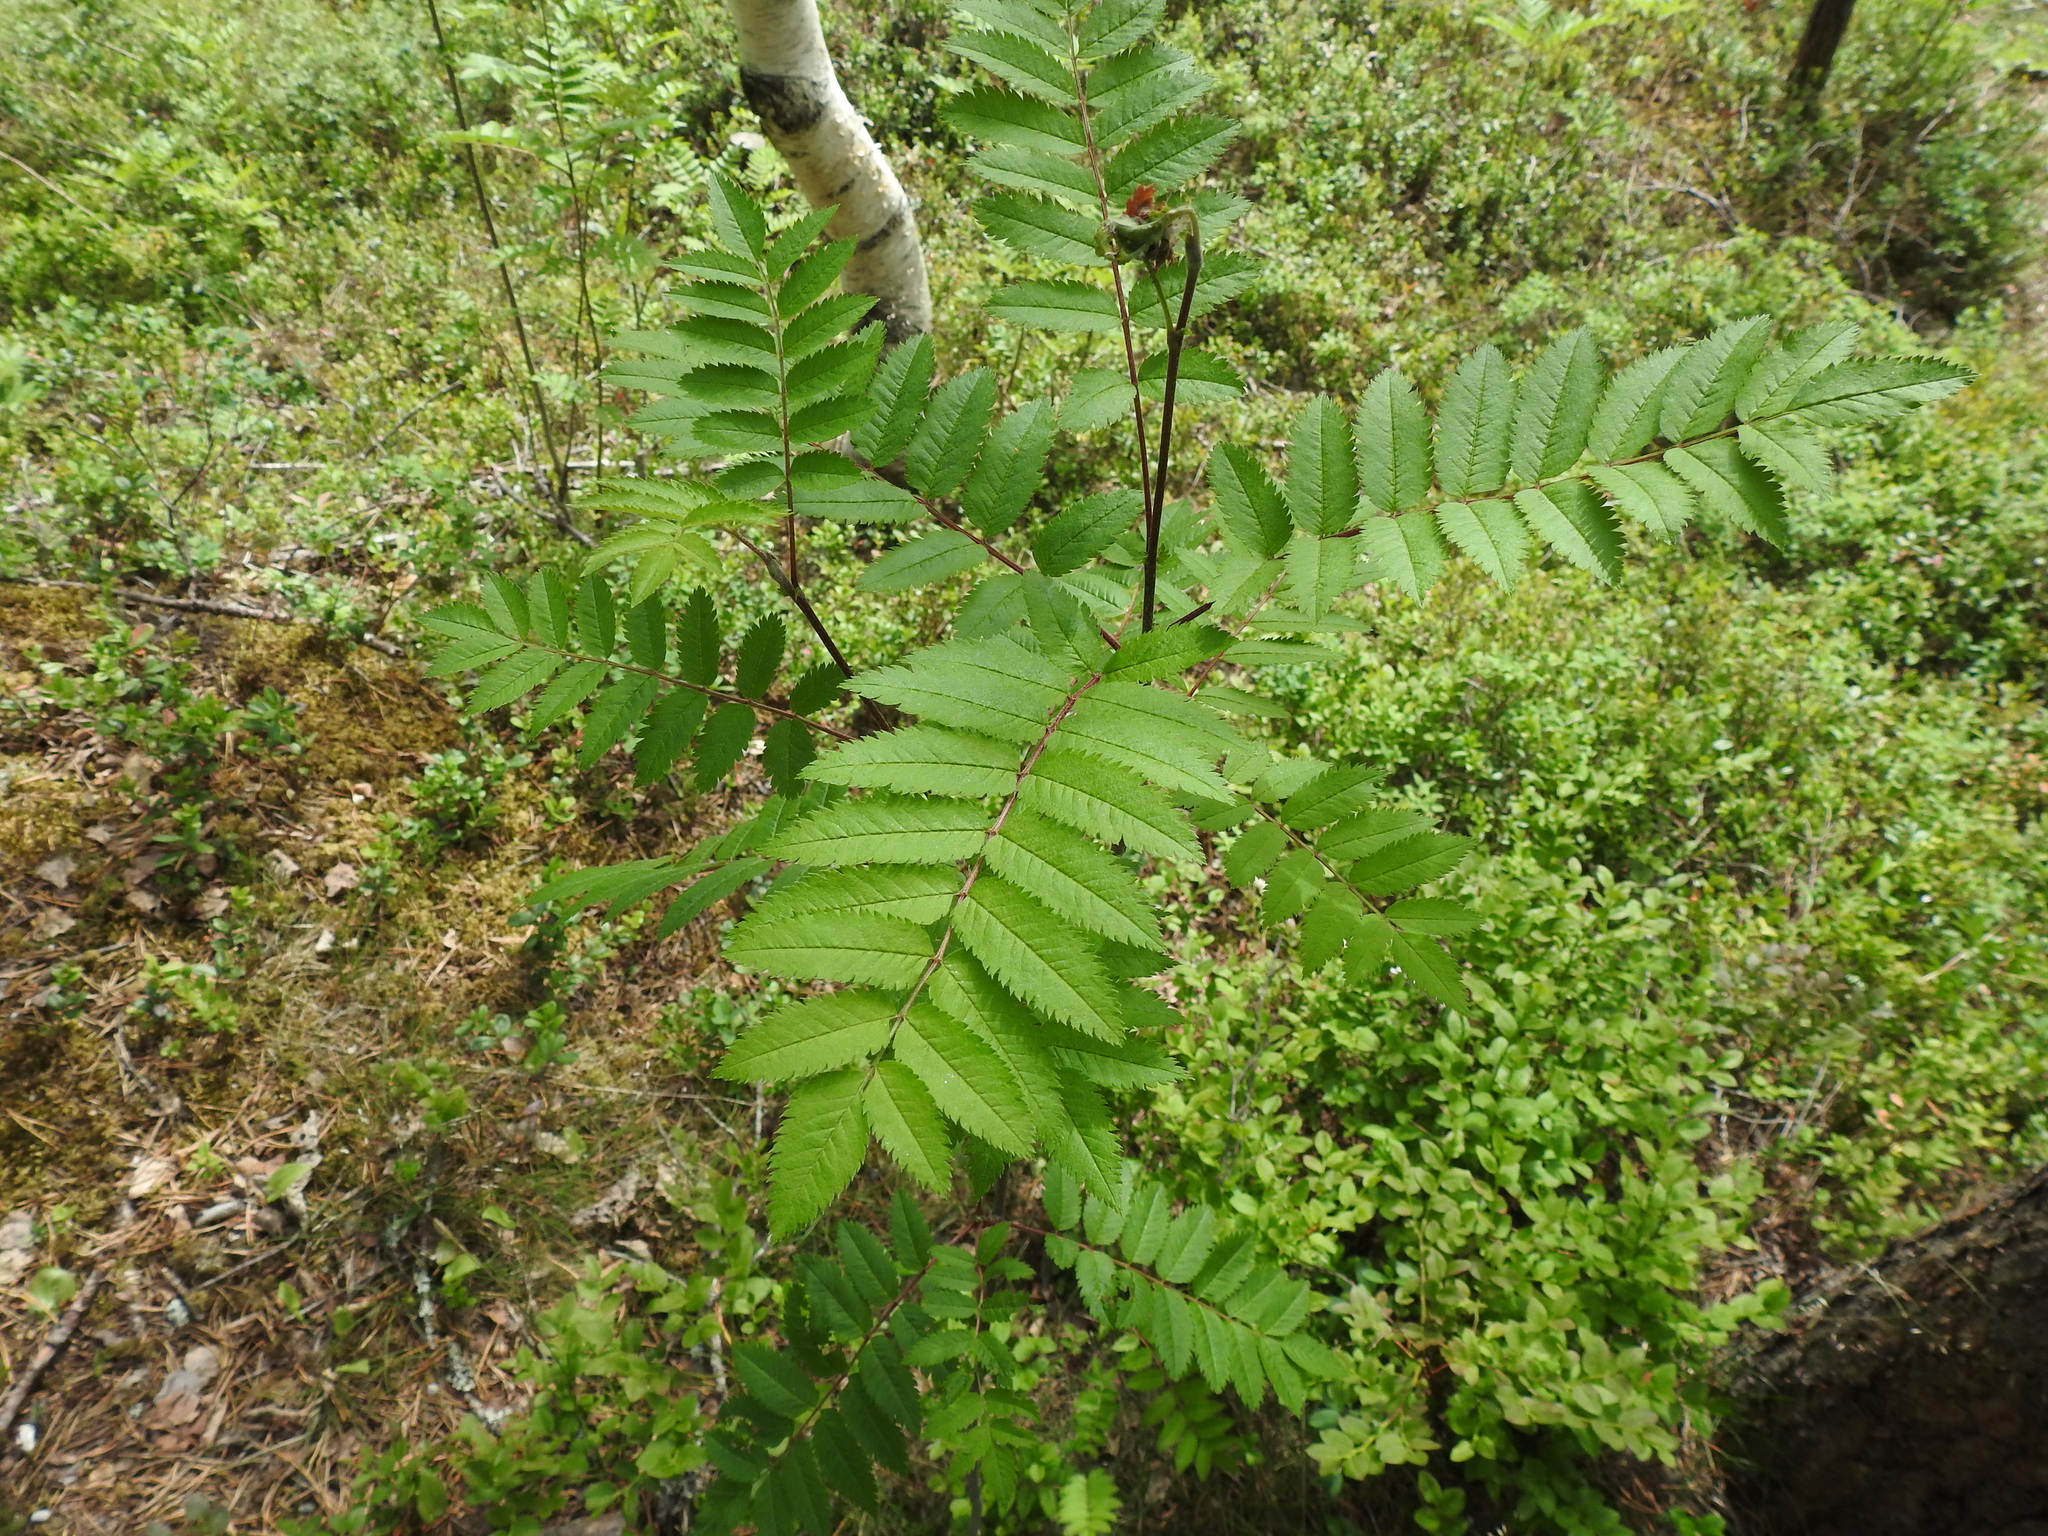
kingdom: Plantae
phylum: Tracheophyta
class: Magnoliopsida
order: Rosales
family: Rosaceae
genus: Sorbus
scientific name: Sorbus aucuparia
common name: Rowan
